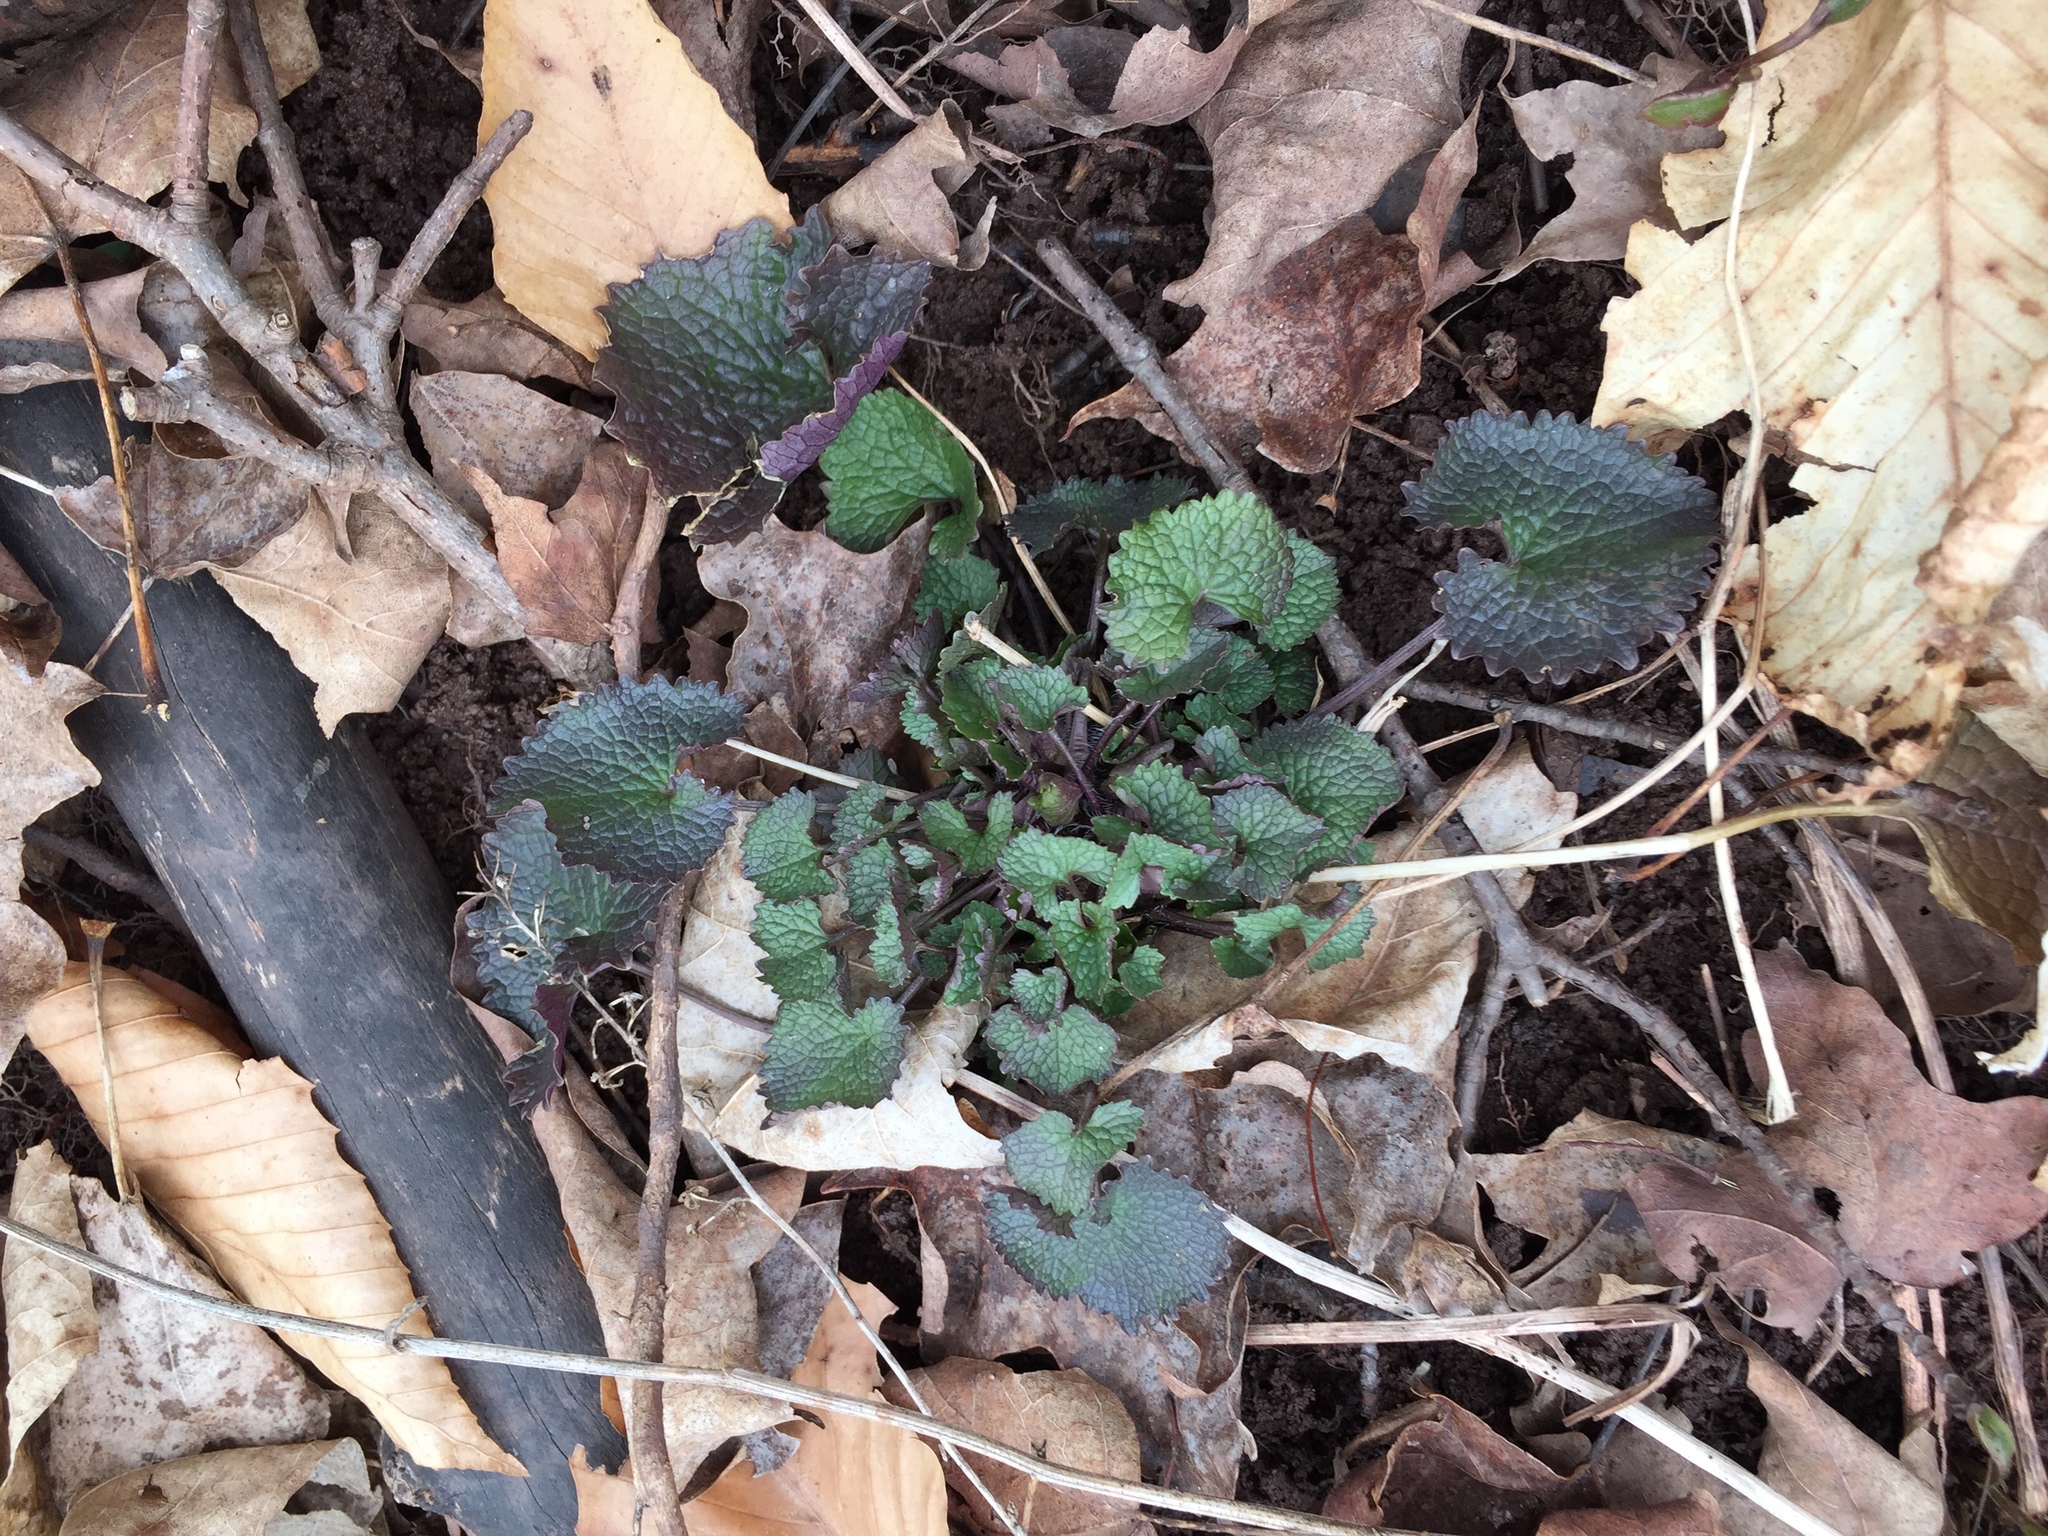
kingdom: Plantae
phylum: Tracheophyta
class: Magnoliopsida
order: Brassicales
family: Brassicaceae
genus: Alliaria
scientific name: Alliaria petiolata
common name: Garlic mustard
